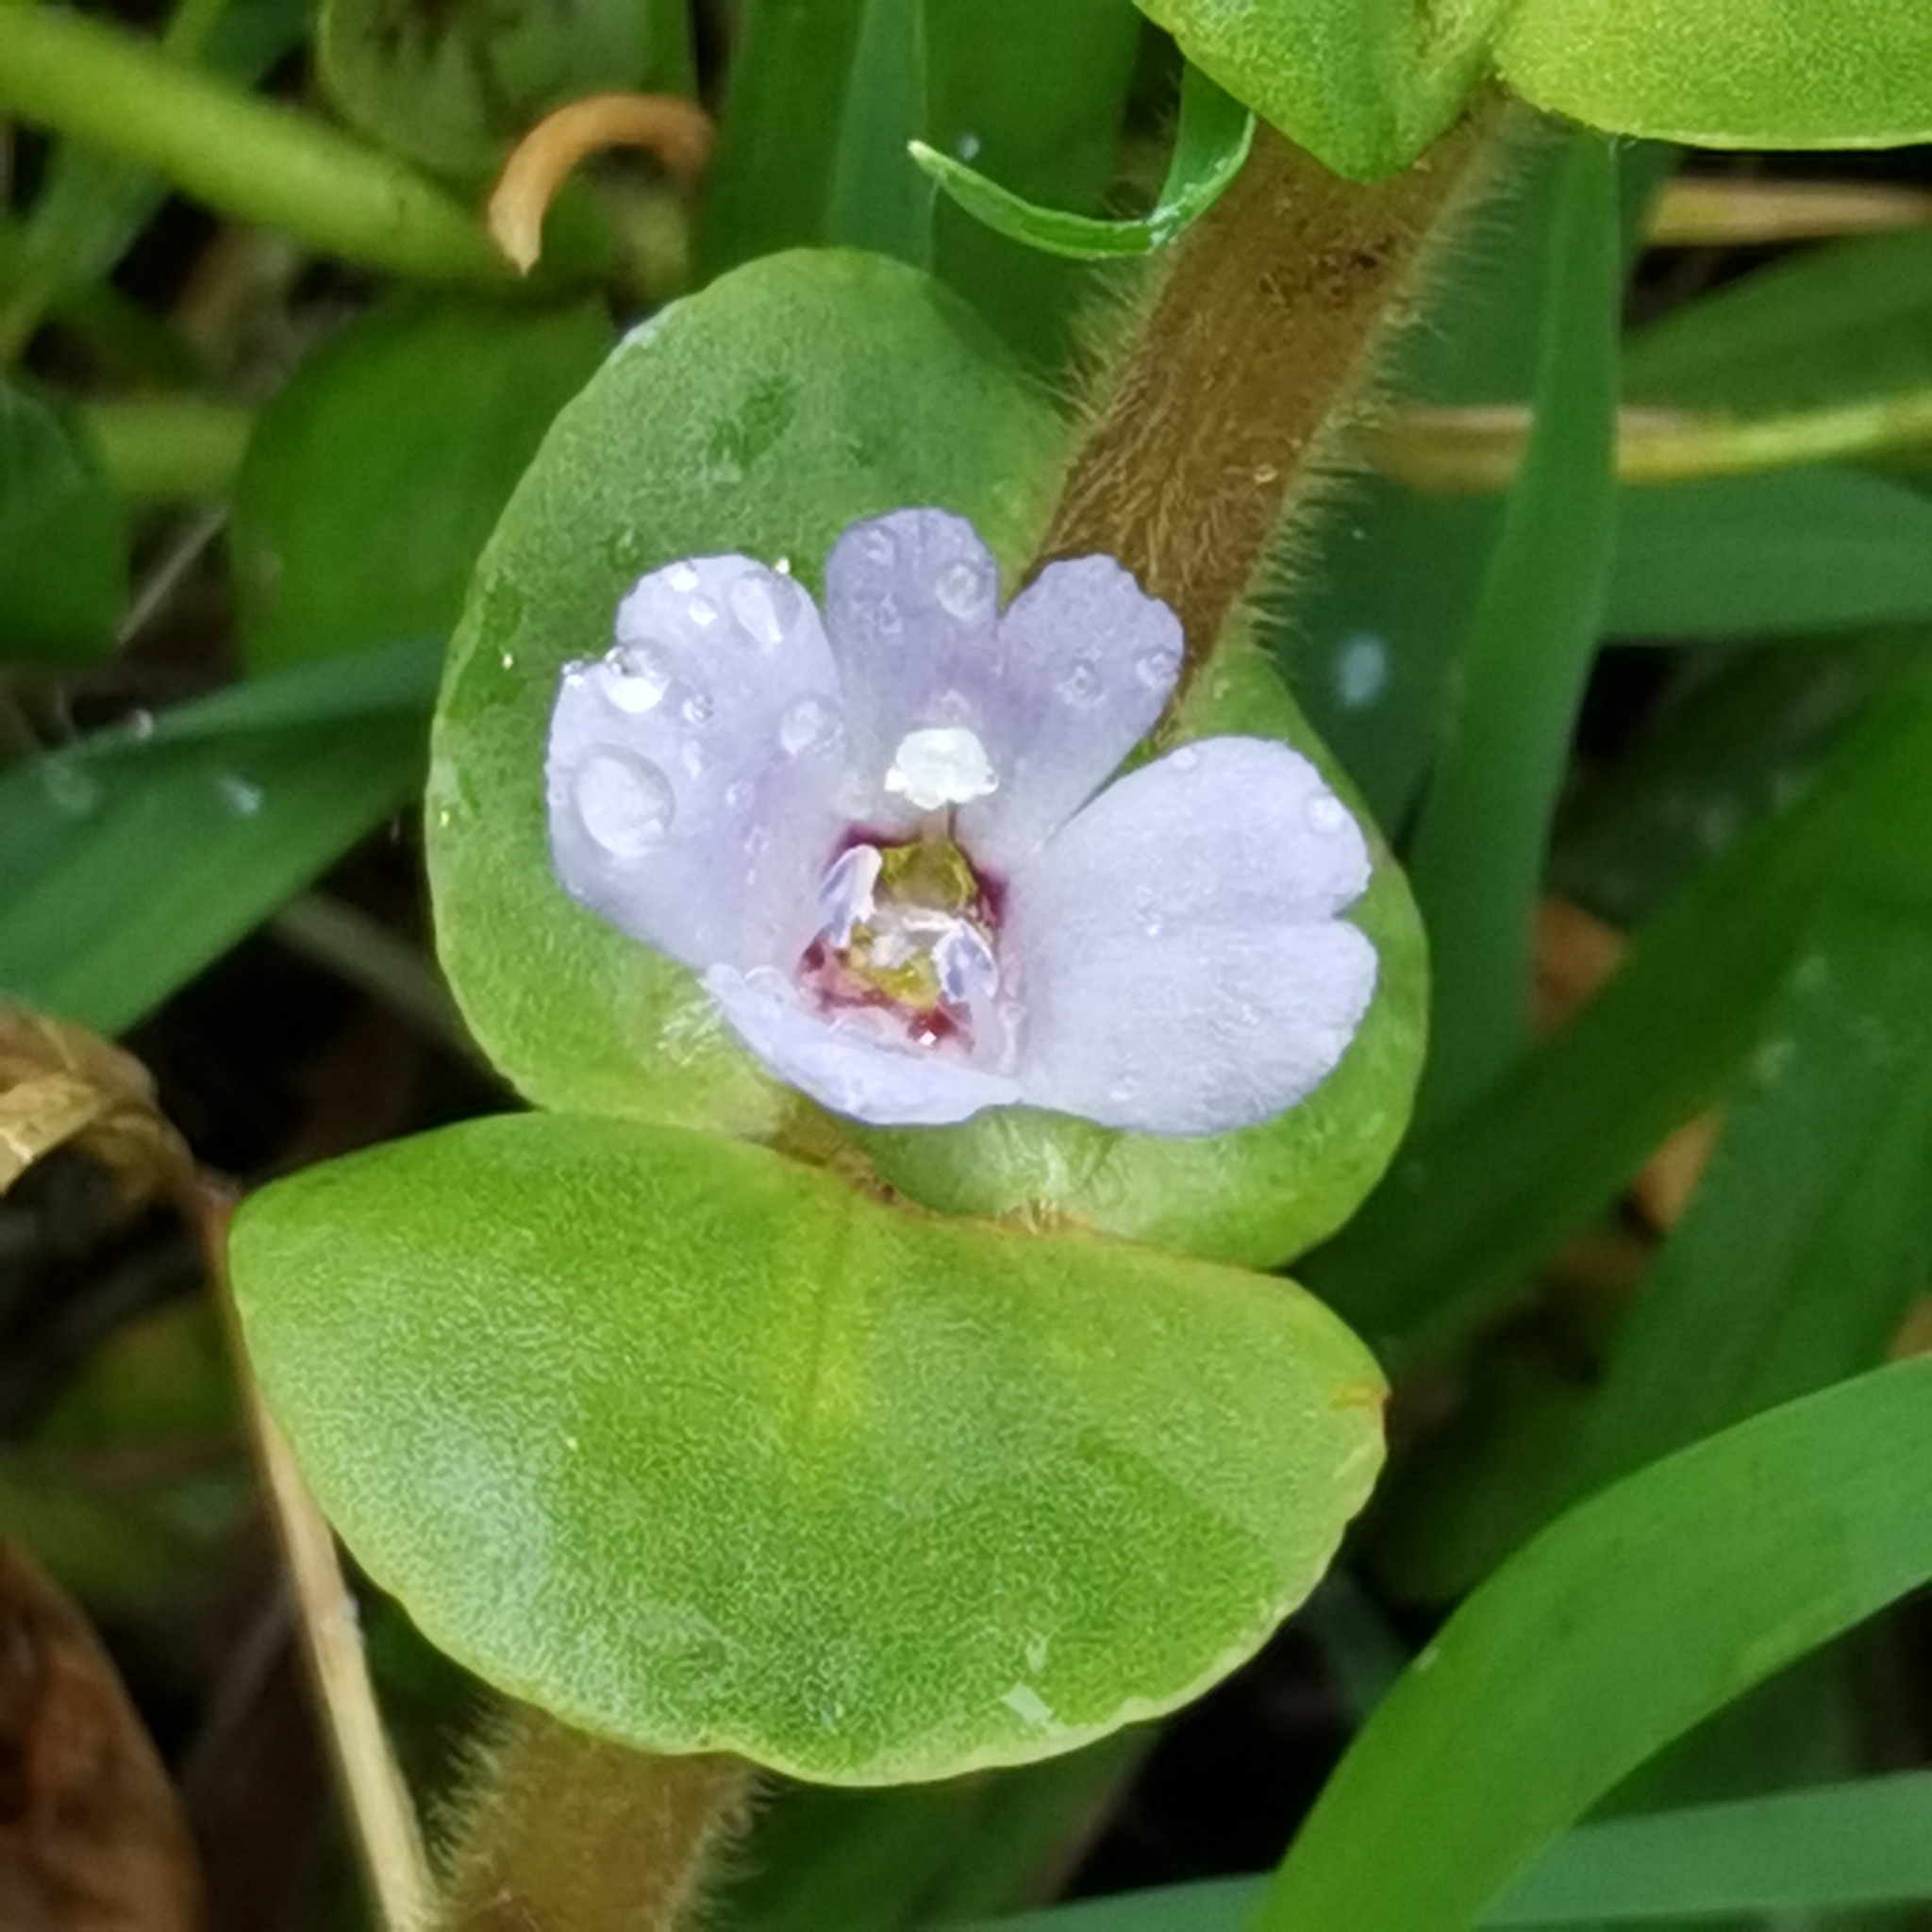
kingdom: Plantae
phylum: Tracheophyta
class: Magnoliopsida
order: Lamiales
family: Plantaginaceae
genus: Bacopa
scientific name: Bacopa salzmannii
